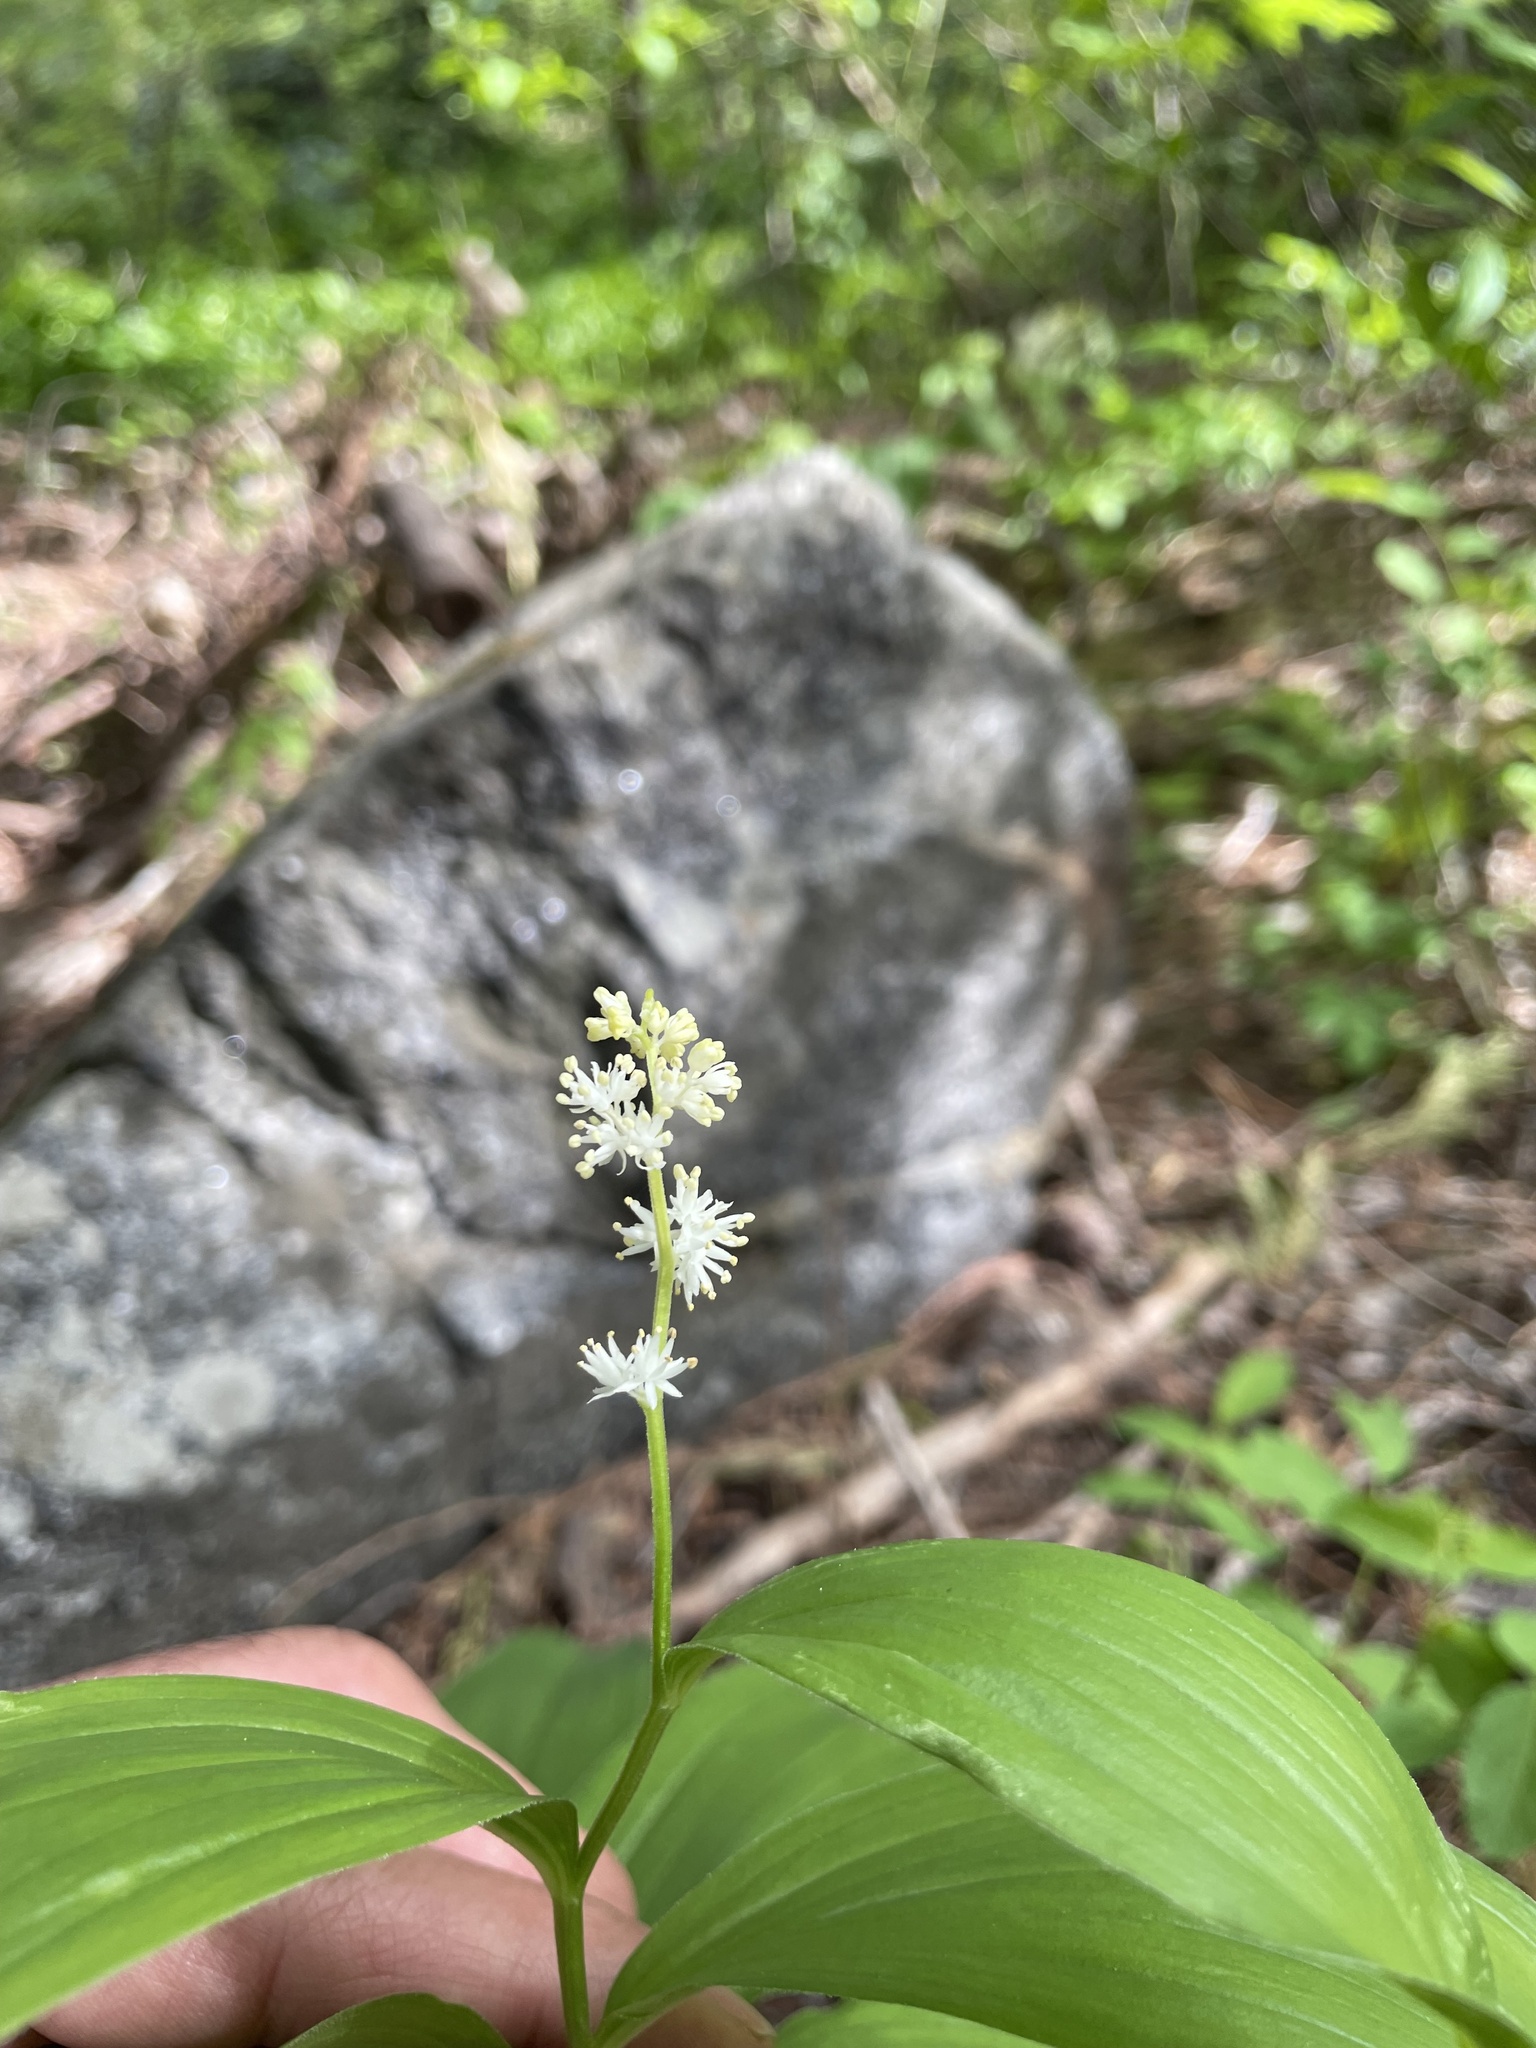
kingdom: Plantae
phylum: Tracheophyta
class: Liliopsida
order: Asparagales
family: Asparagaceae
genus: Maianthemum
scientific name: Maianthemum racemosum
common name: False spikenard
